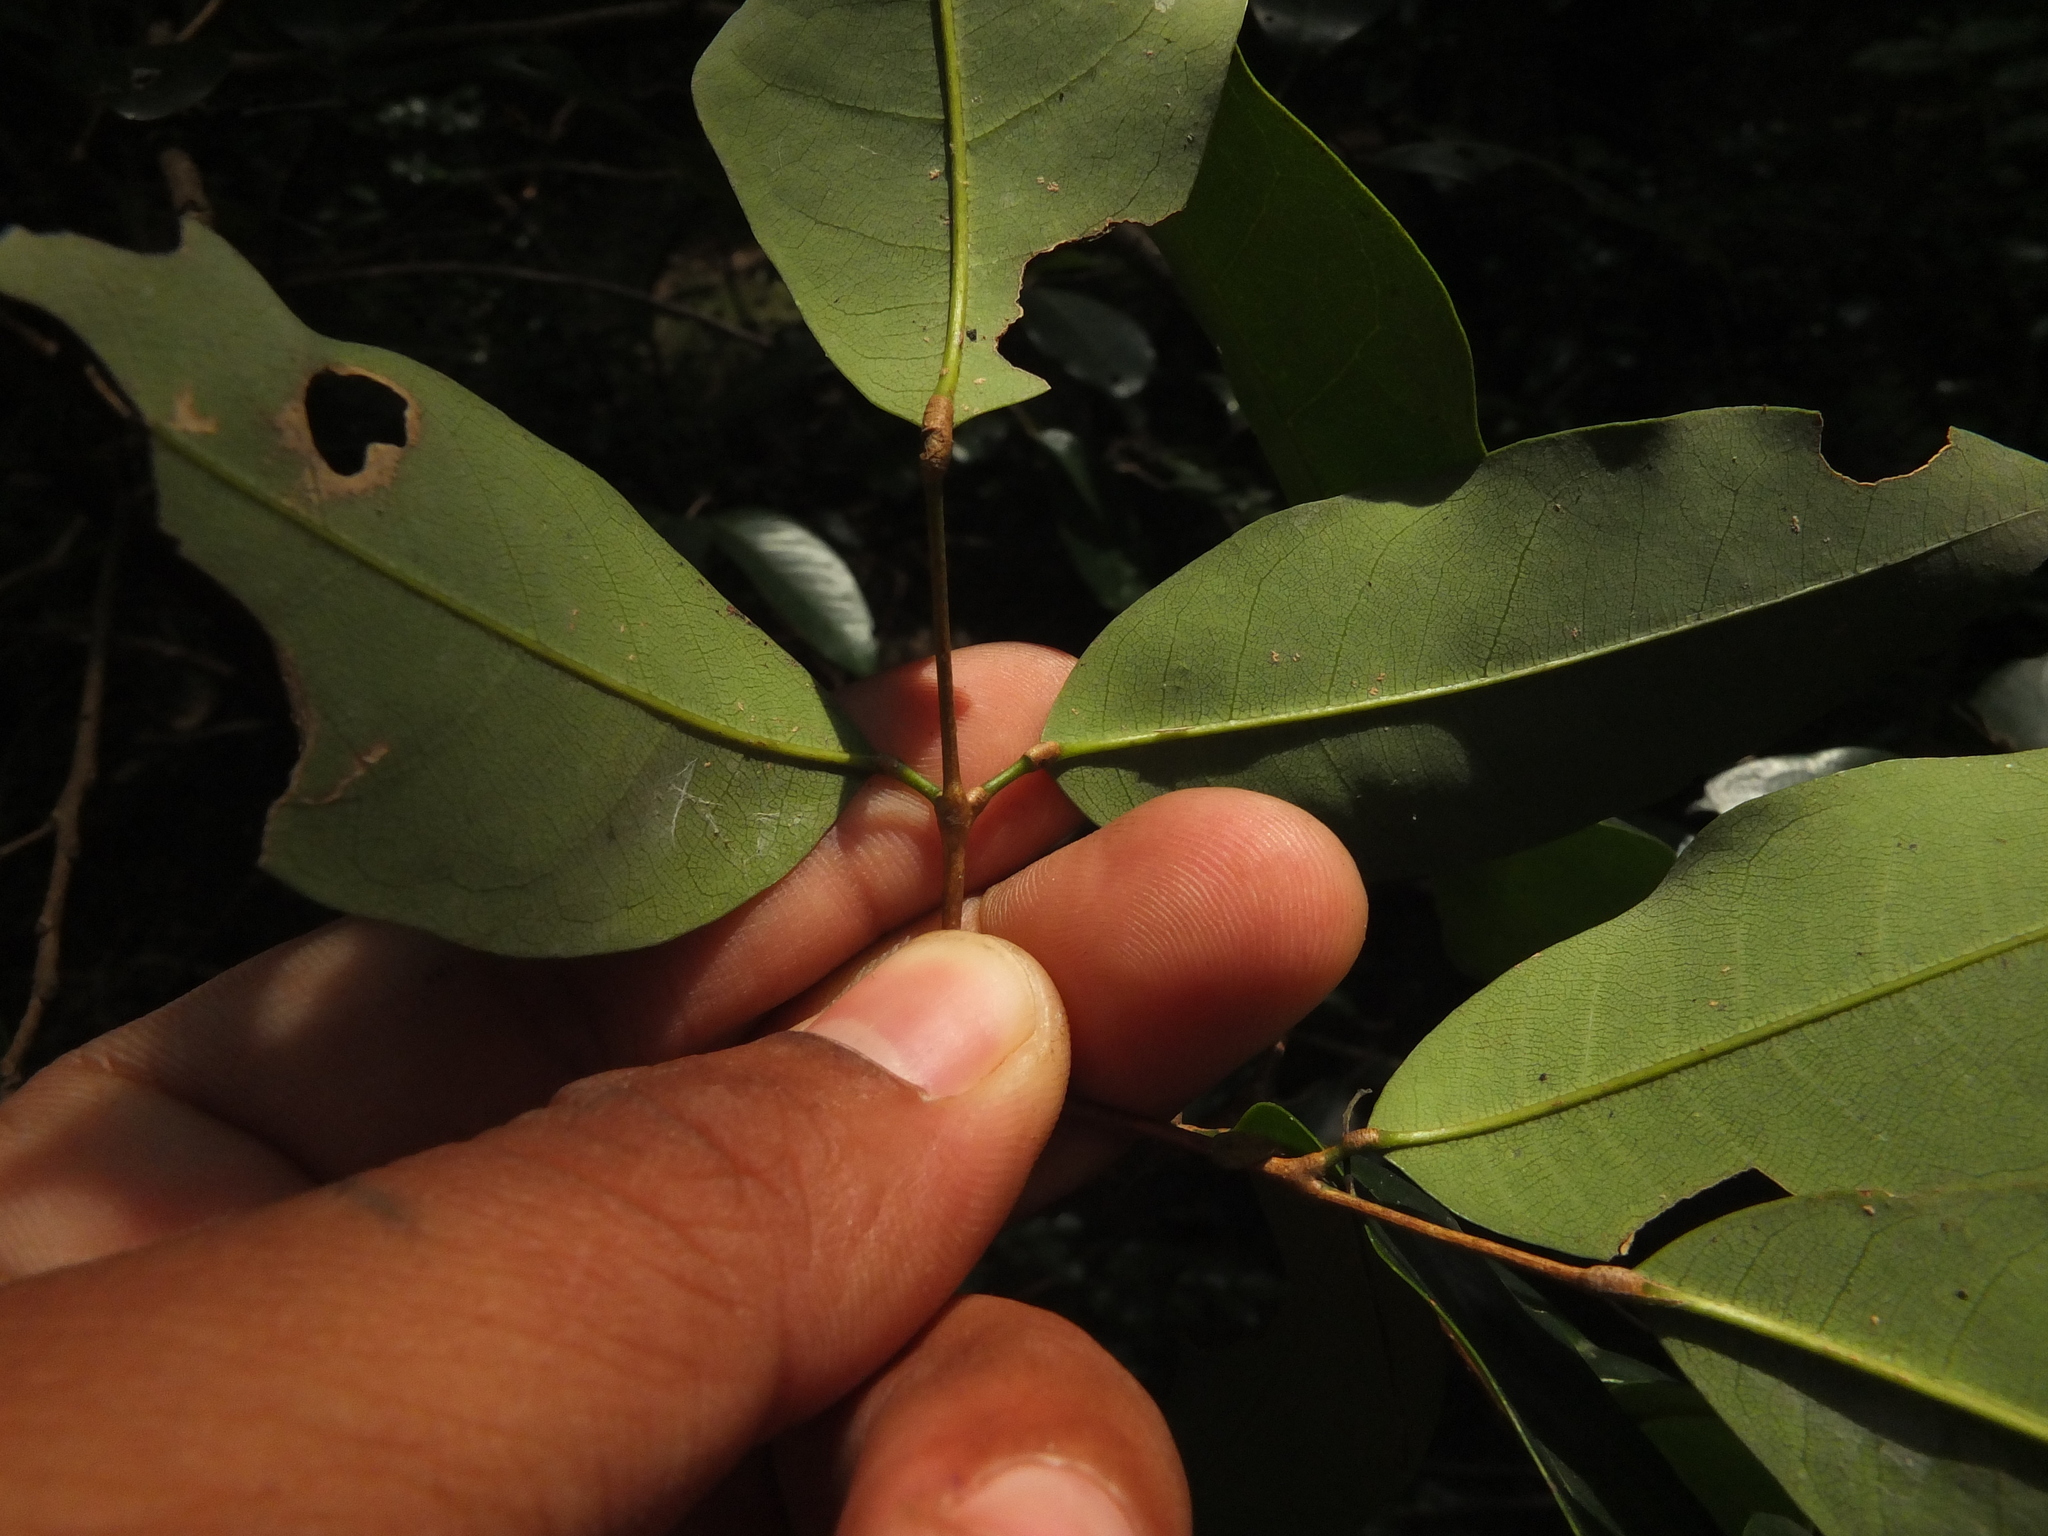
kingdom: Plantae
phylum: Tracheophyta
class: Magnoliopsida
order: Sapindales
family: Meliaceae
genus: Walsura
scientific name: Walsura trifoliolata
